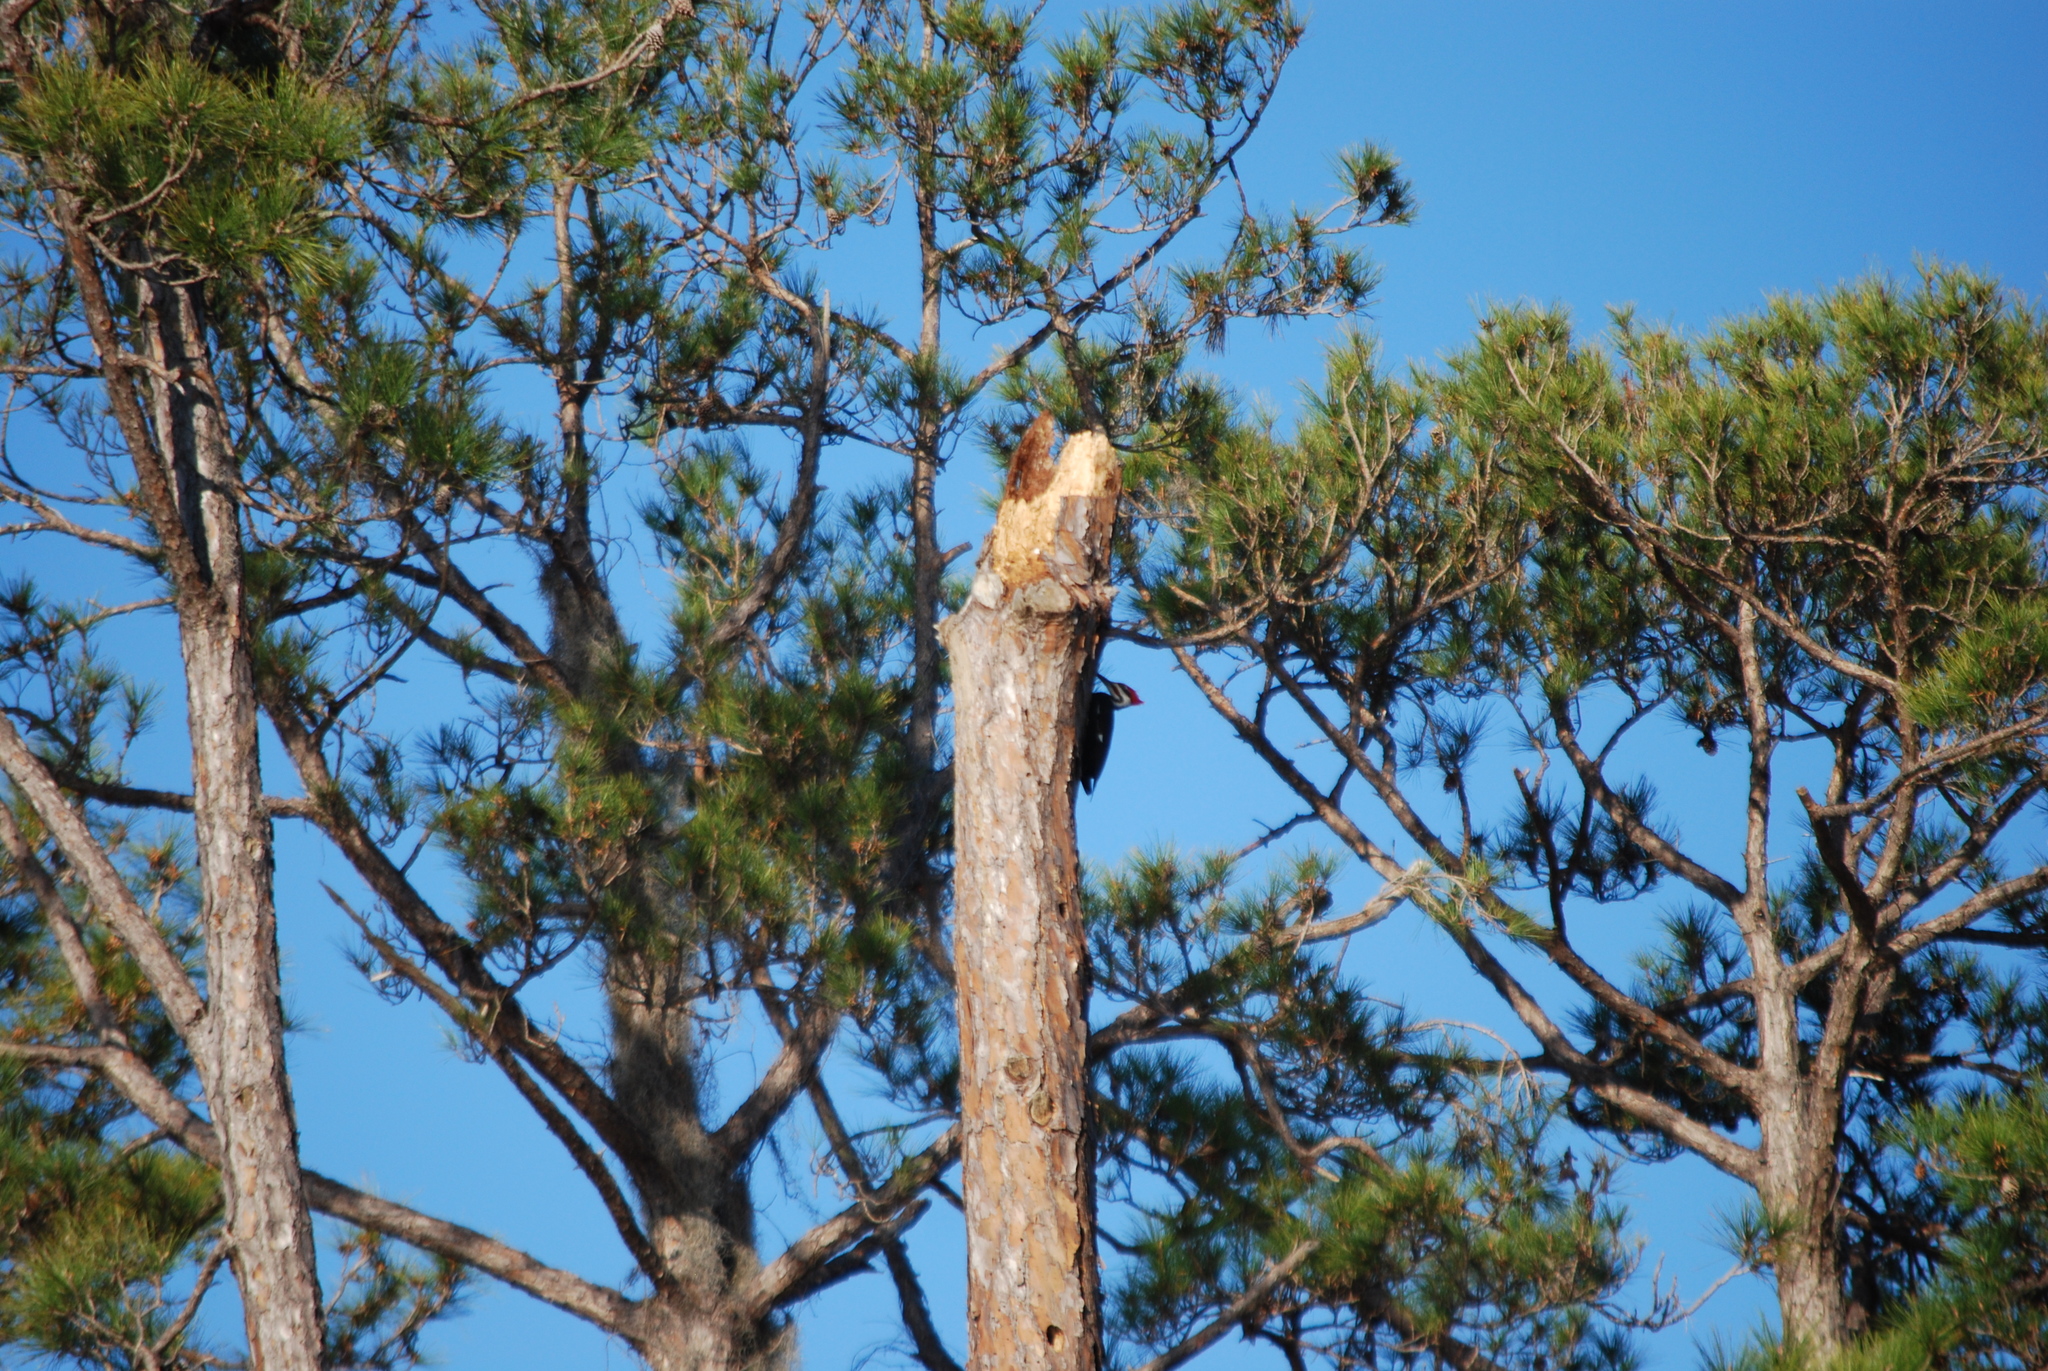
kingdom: Animalia
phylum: Chordata
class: Aves
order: Piciformes
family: Picidae
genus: Dryocopus
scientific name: Dryocopus pileatus
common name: Pileated woodpecker
